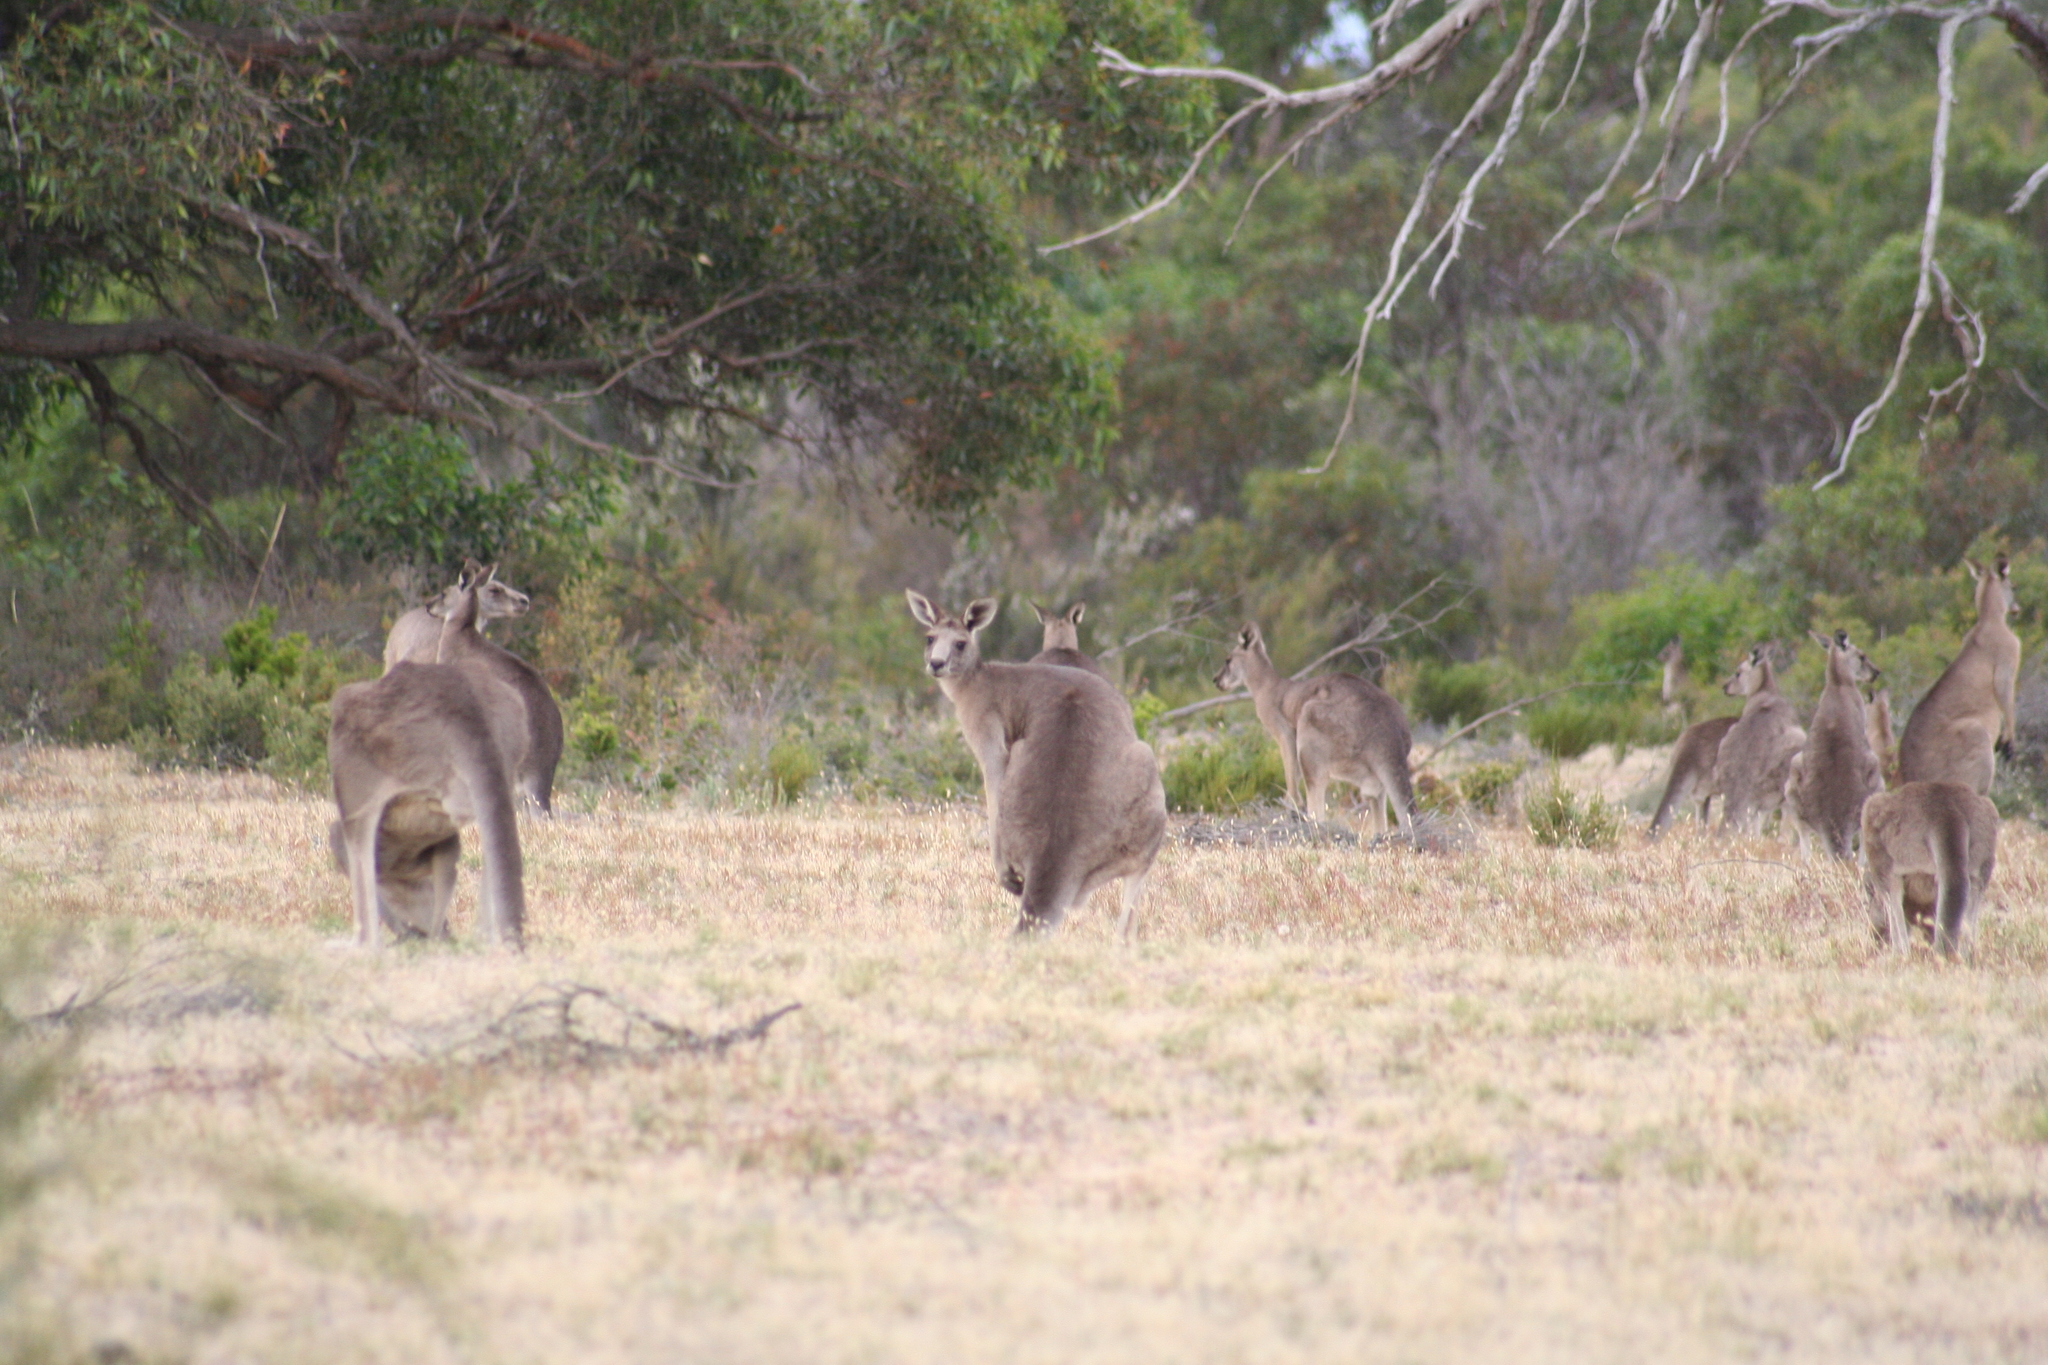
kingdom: Animalia
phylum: Chordata
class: Mammalia
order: Diprotodontia
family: Macropodidae
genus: Macropus
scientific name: Macropus giganteus
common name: Eastern grey kangaroo
